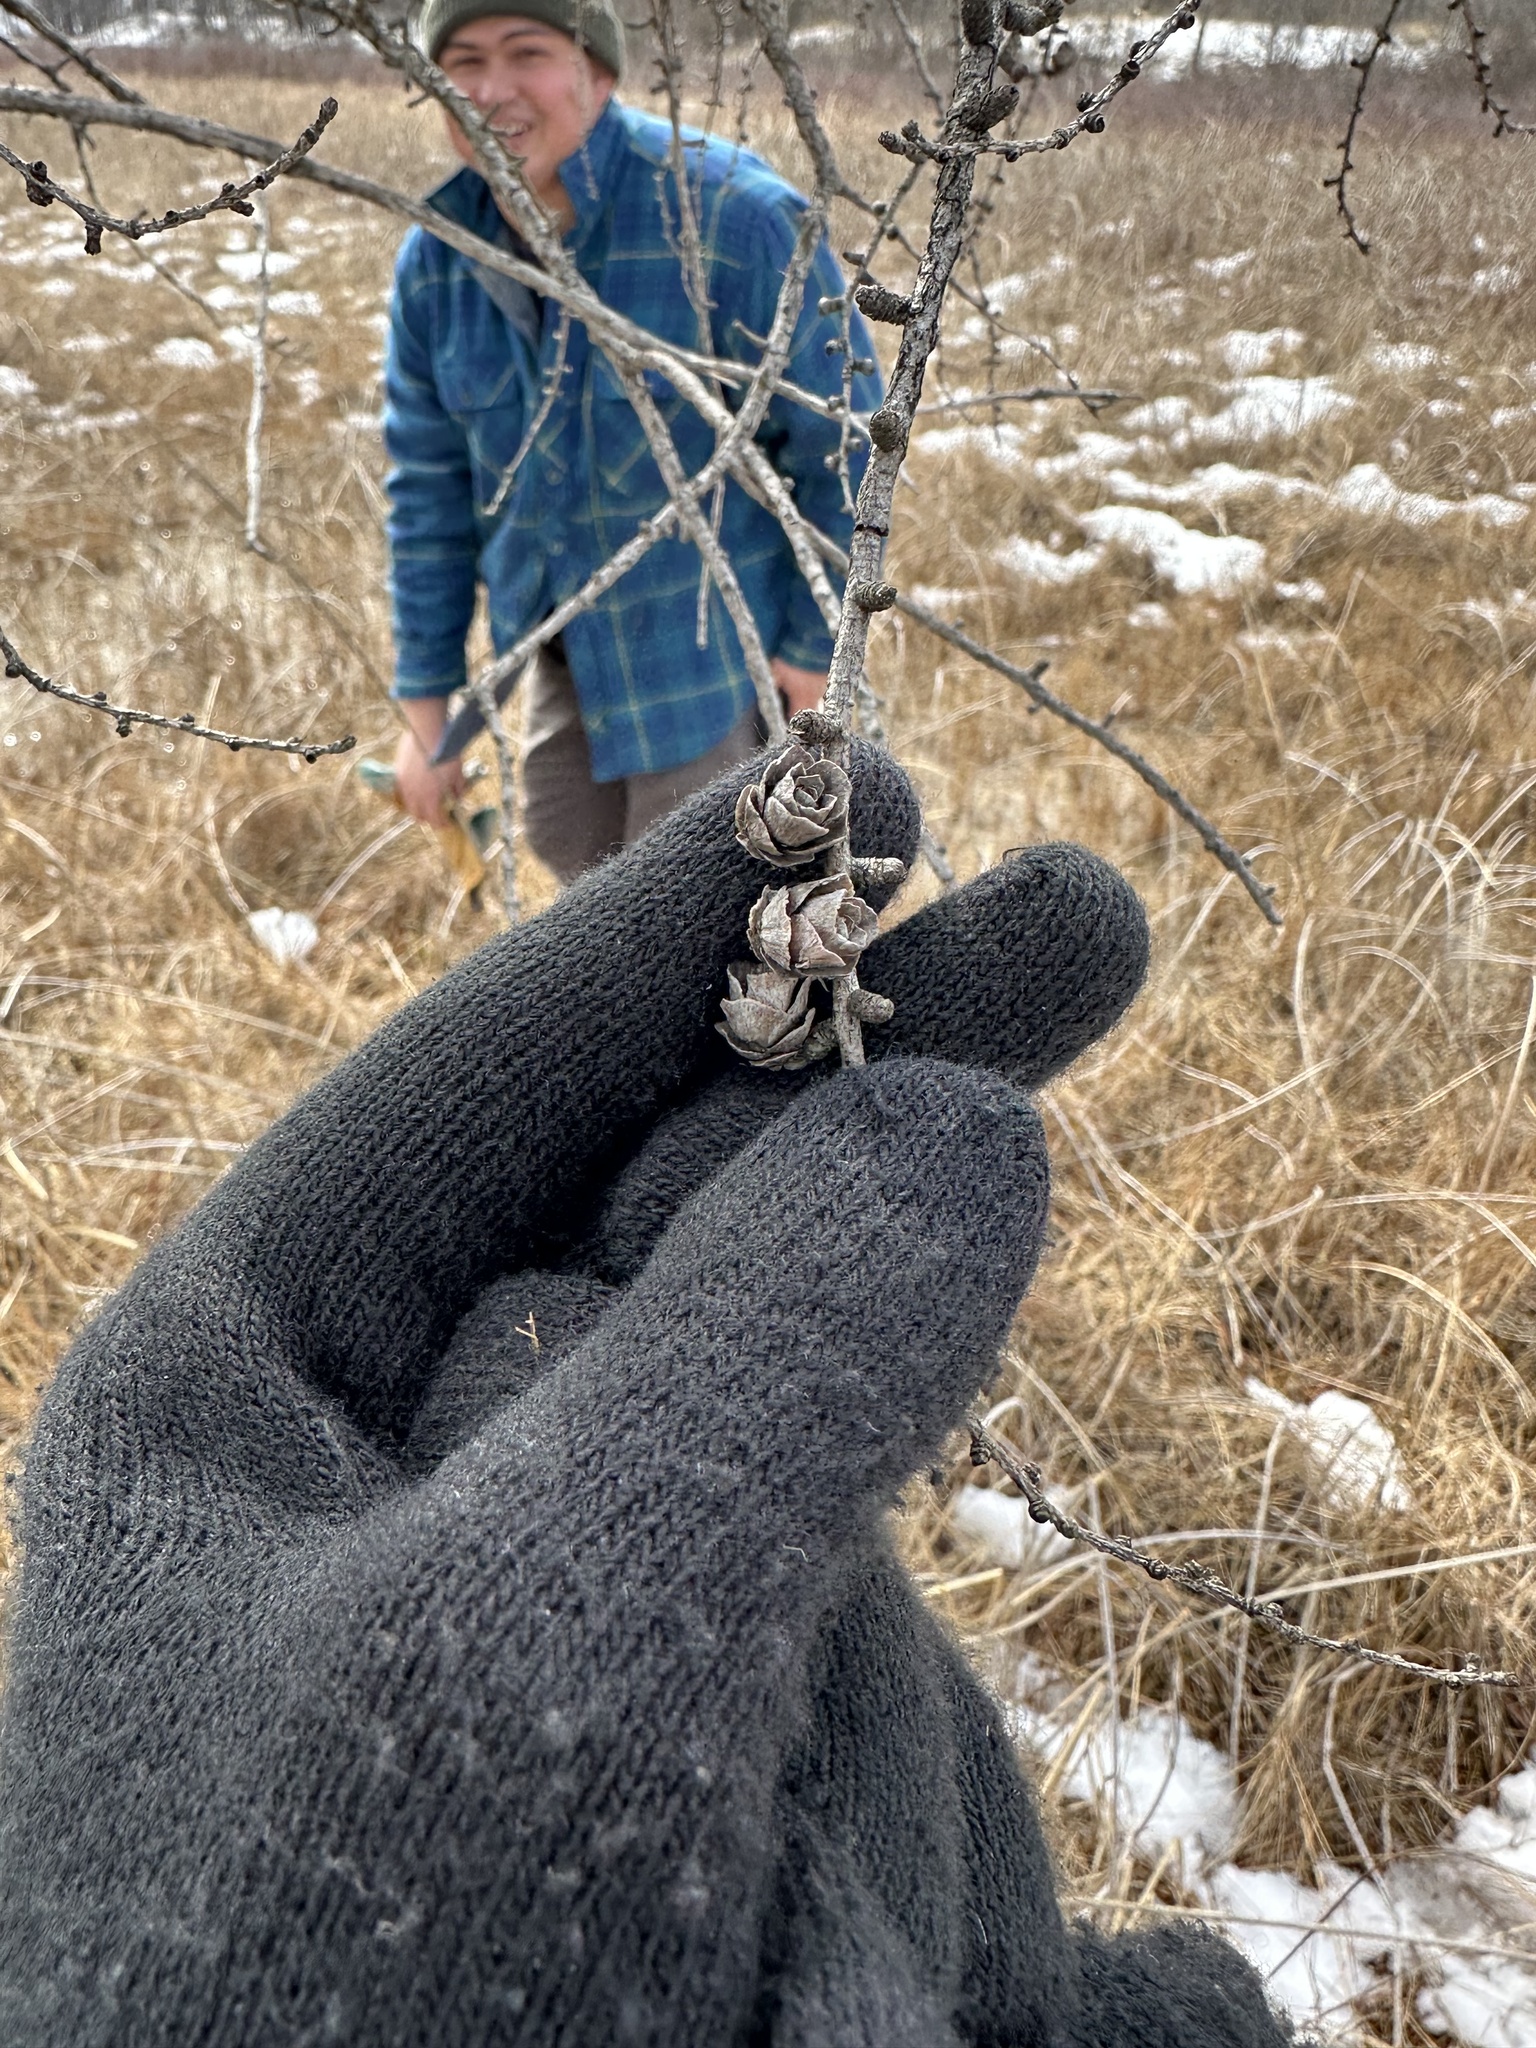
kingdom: Plantae
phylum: Tracheophyta
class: Pinopsida
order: Pinales
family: Pinaceae
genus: Larix
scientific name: Larix laricina
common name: American larch
